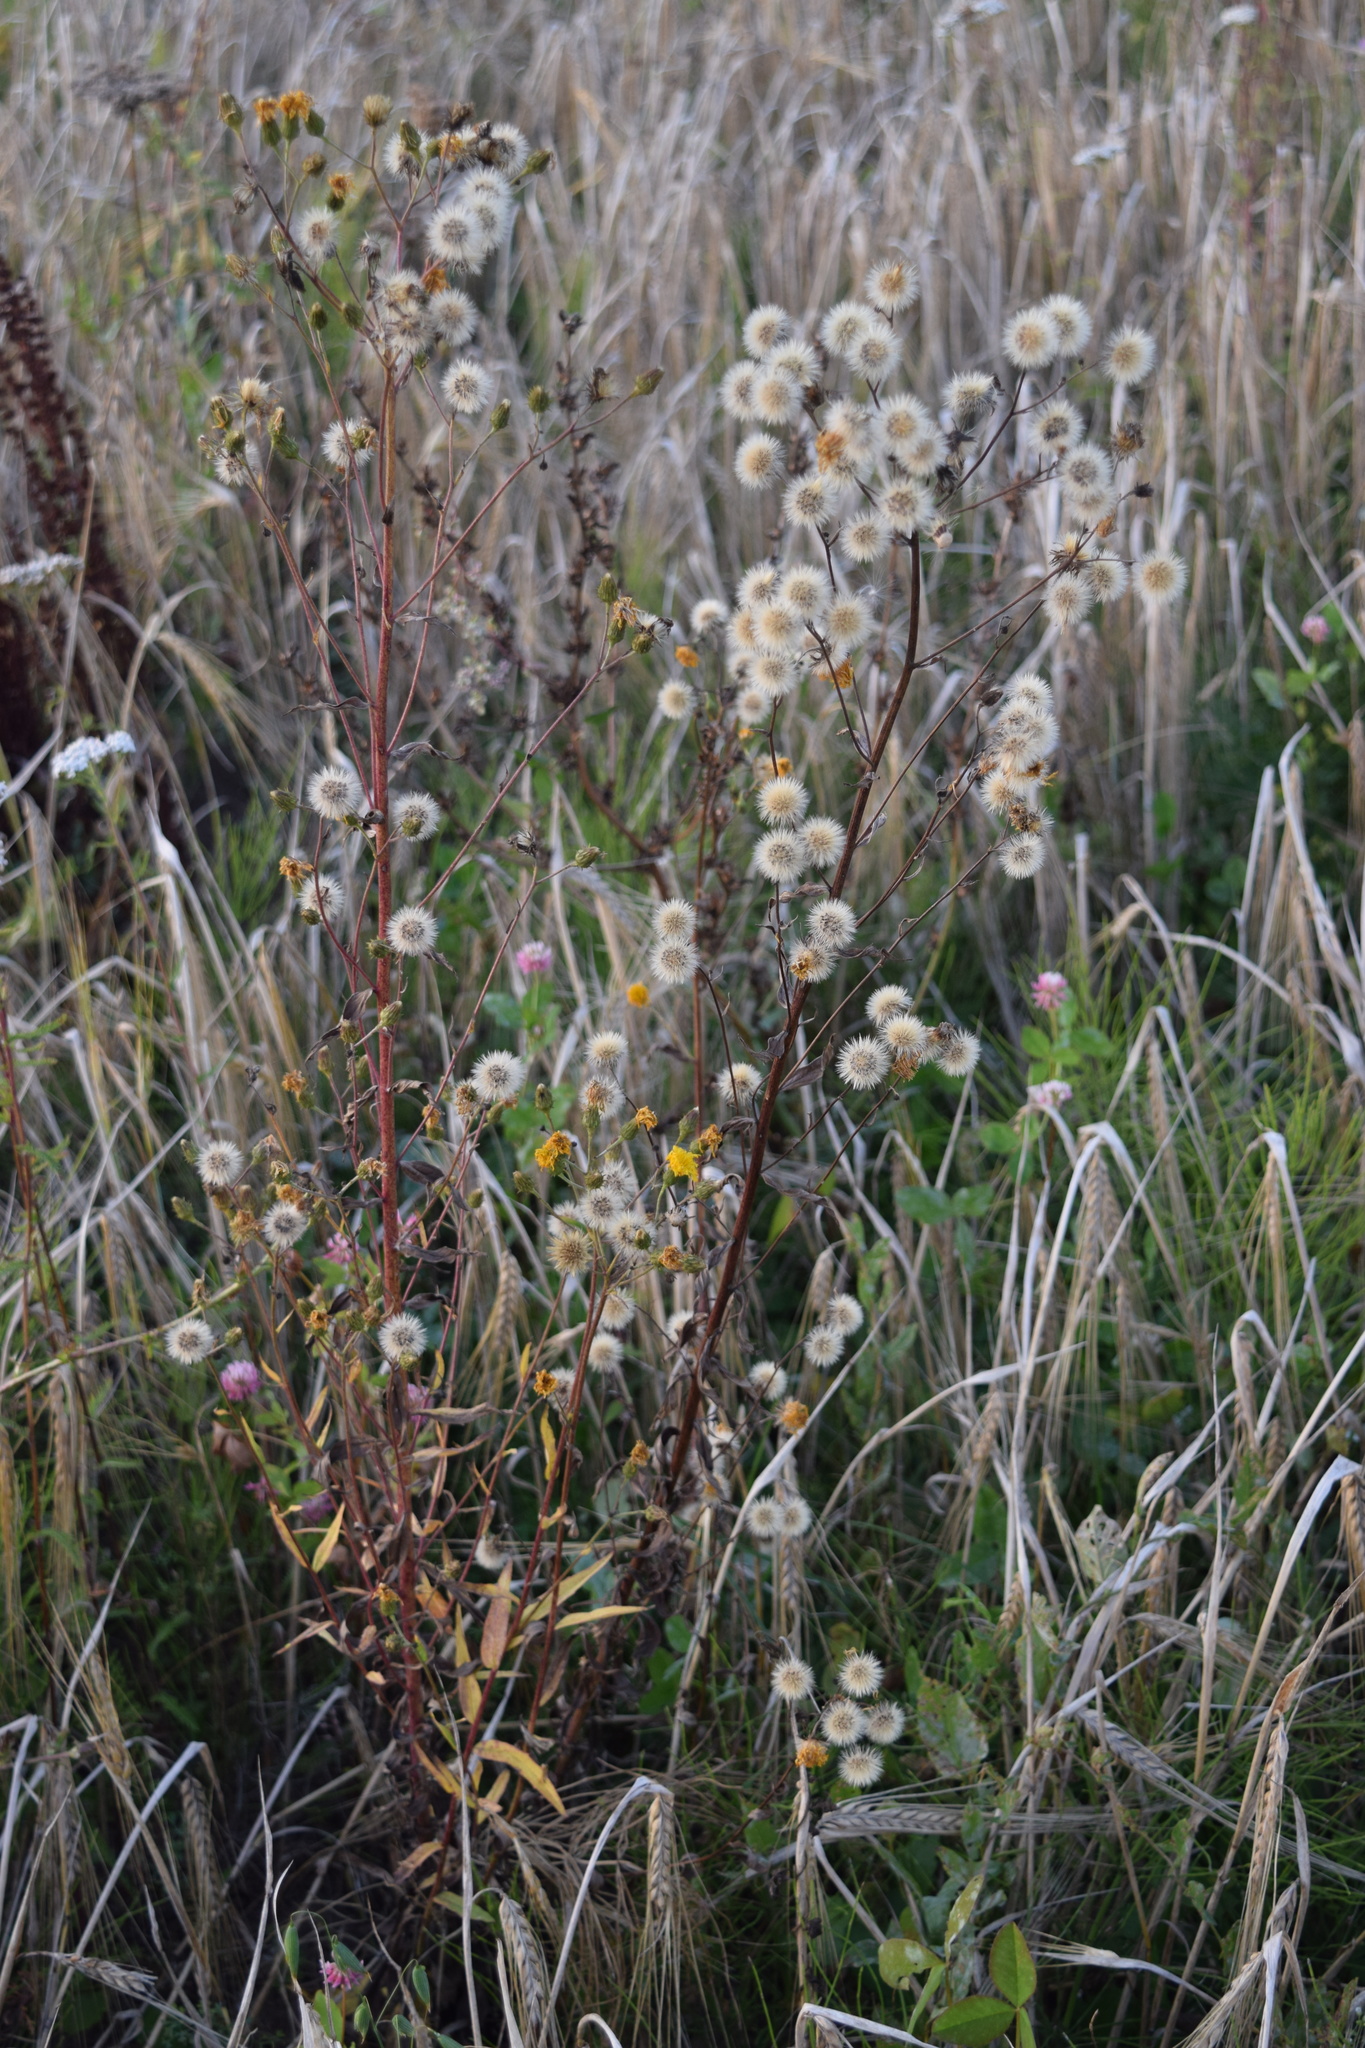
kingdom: Plantae
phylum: Tracheophyta
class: Magnoliopsida
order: Asterales
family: Asteraceae
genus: Hieracium
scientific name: Hieracium umbellatum
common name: Northern hawkweed
